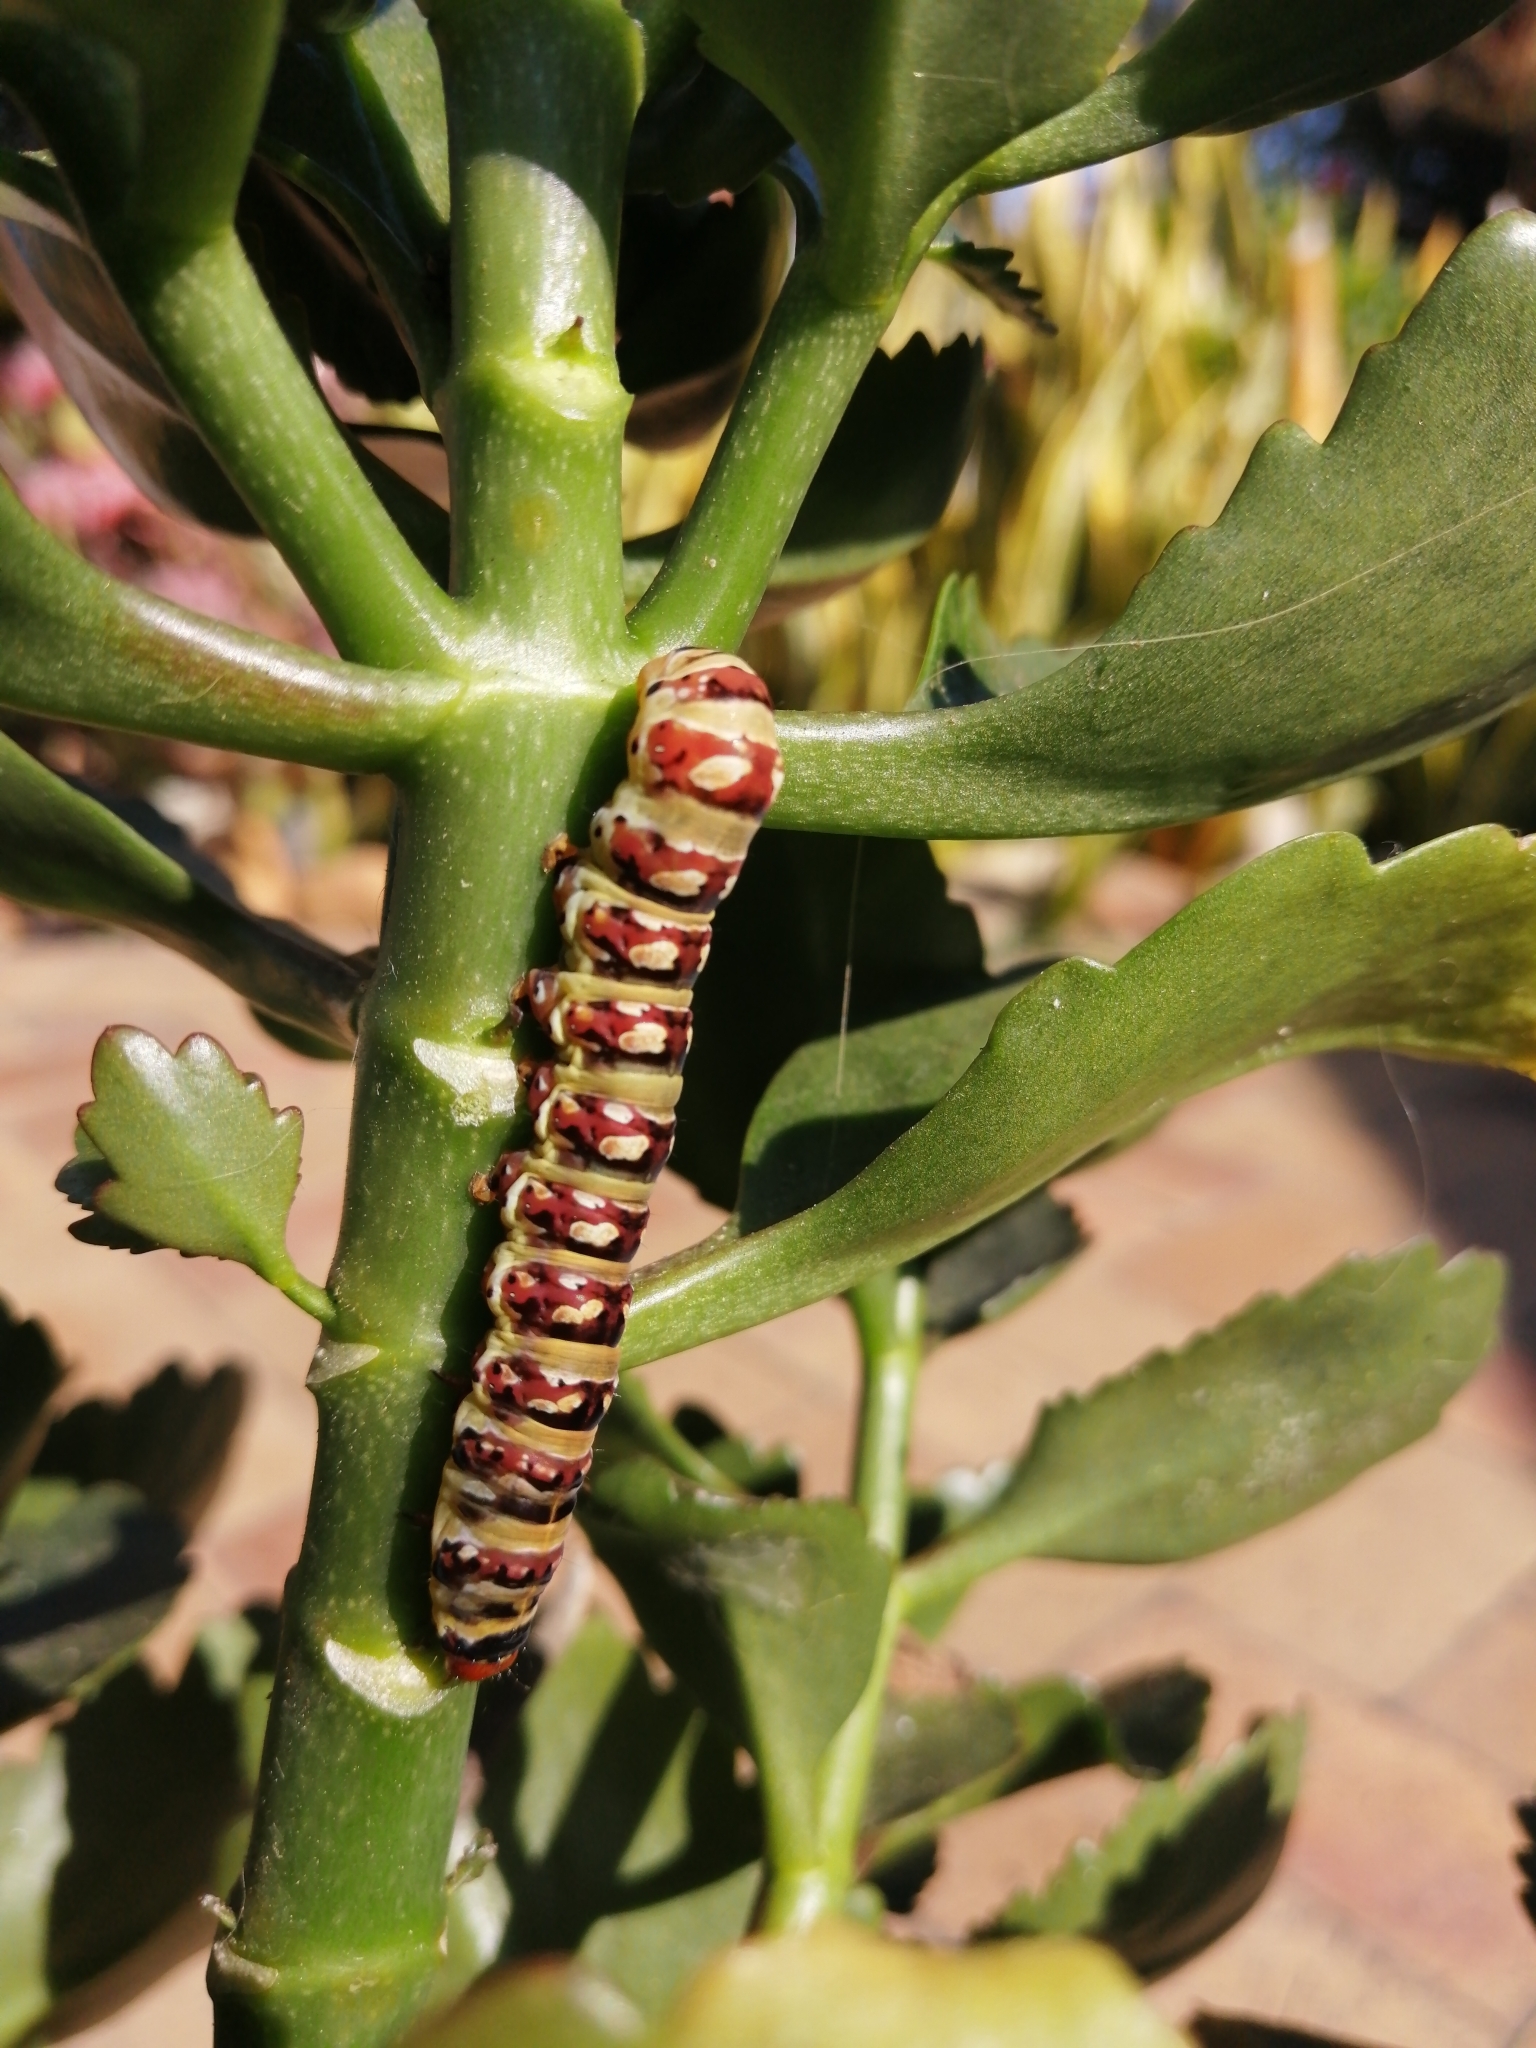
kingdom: Animalia
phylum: Arthropoda
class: Insecta
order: Lepidoptera
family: Noctuidae
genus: Klugeana
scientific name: Klugeana philoxalis
